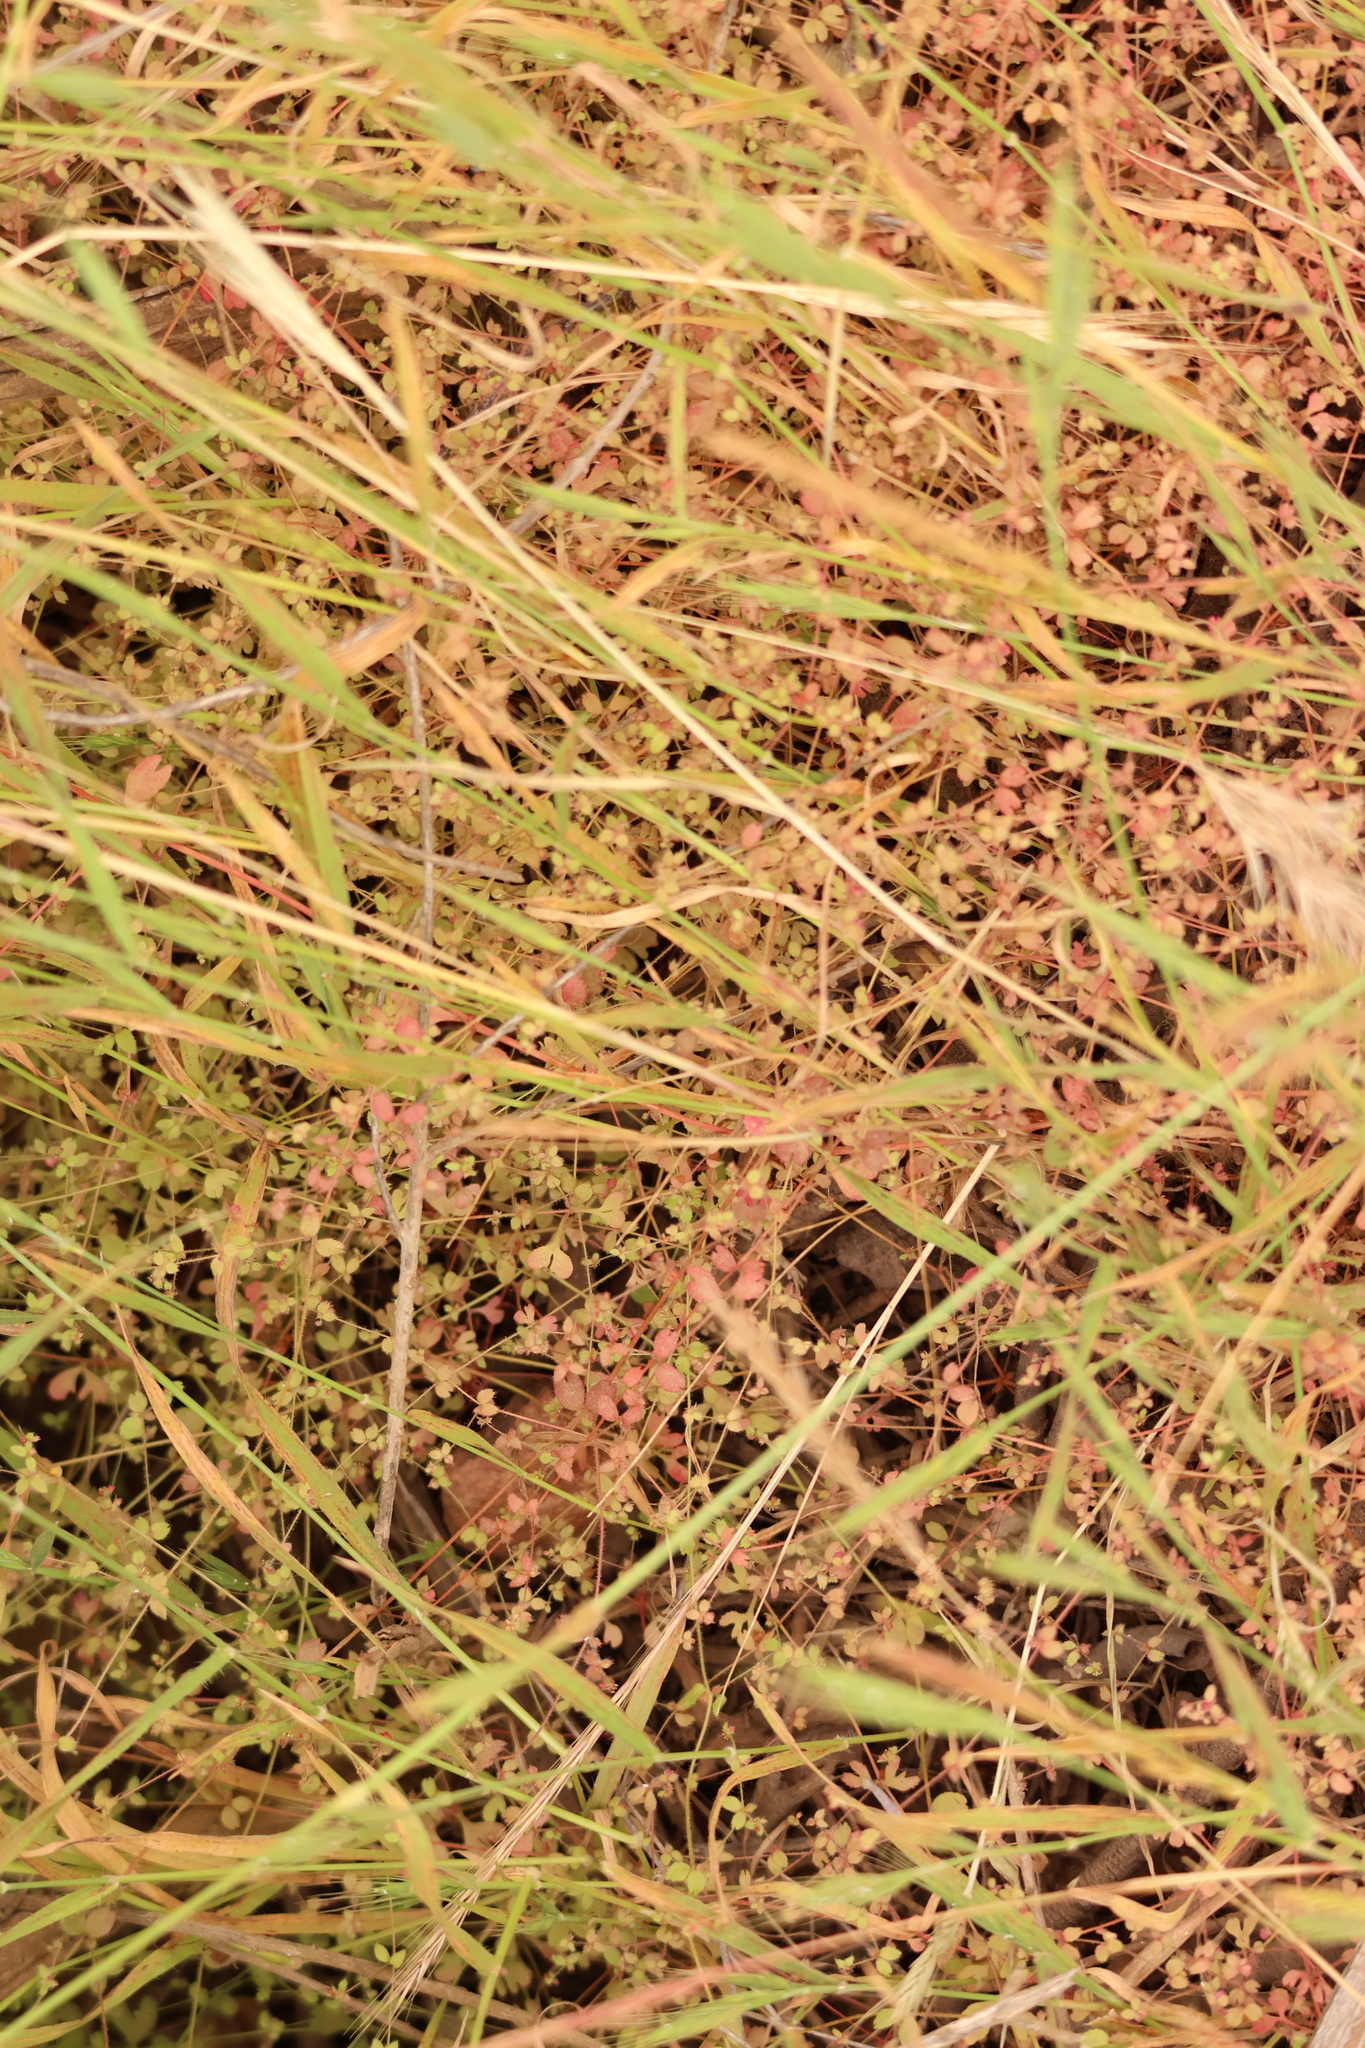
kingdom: Plantae
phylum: Tracheophyta
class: Magnoliopsida
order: Caryophyllales
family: Polygonaceae
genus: Pterostegia
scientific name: Pterostegia drymarioides
